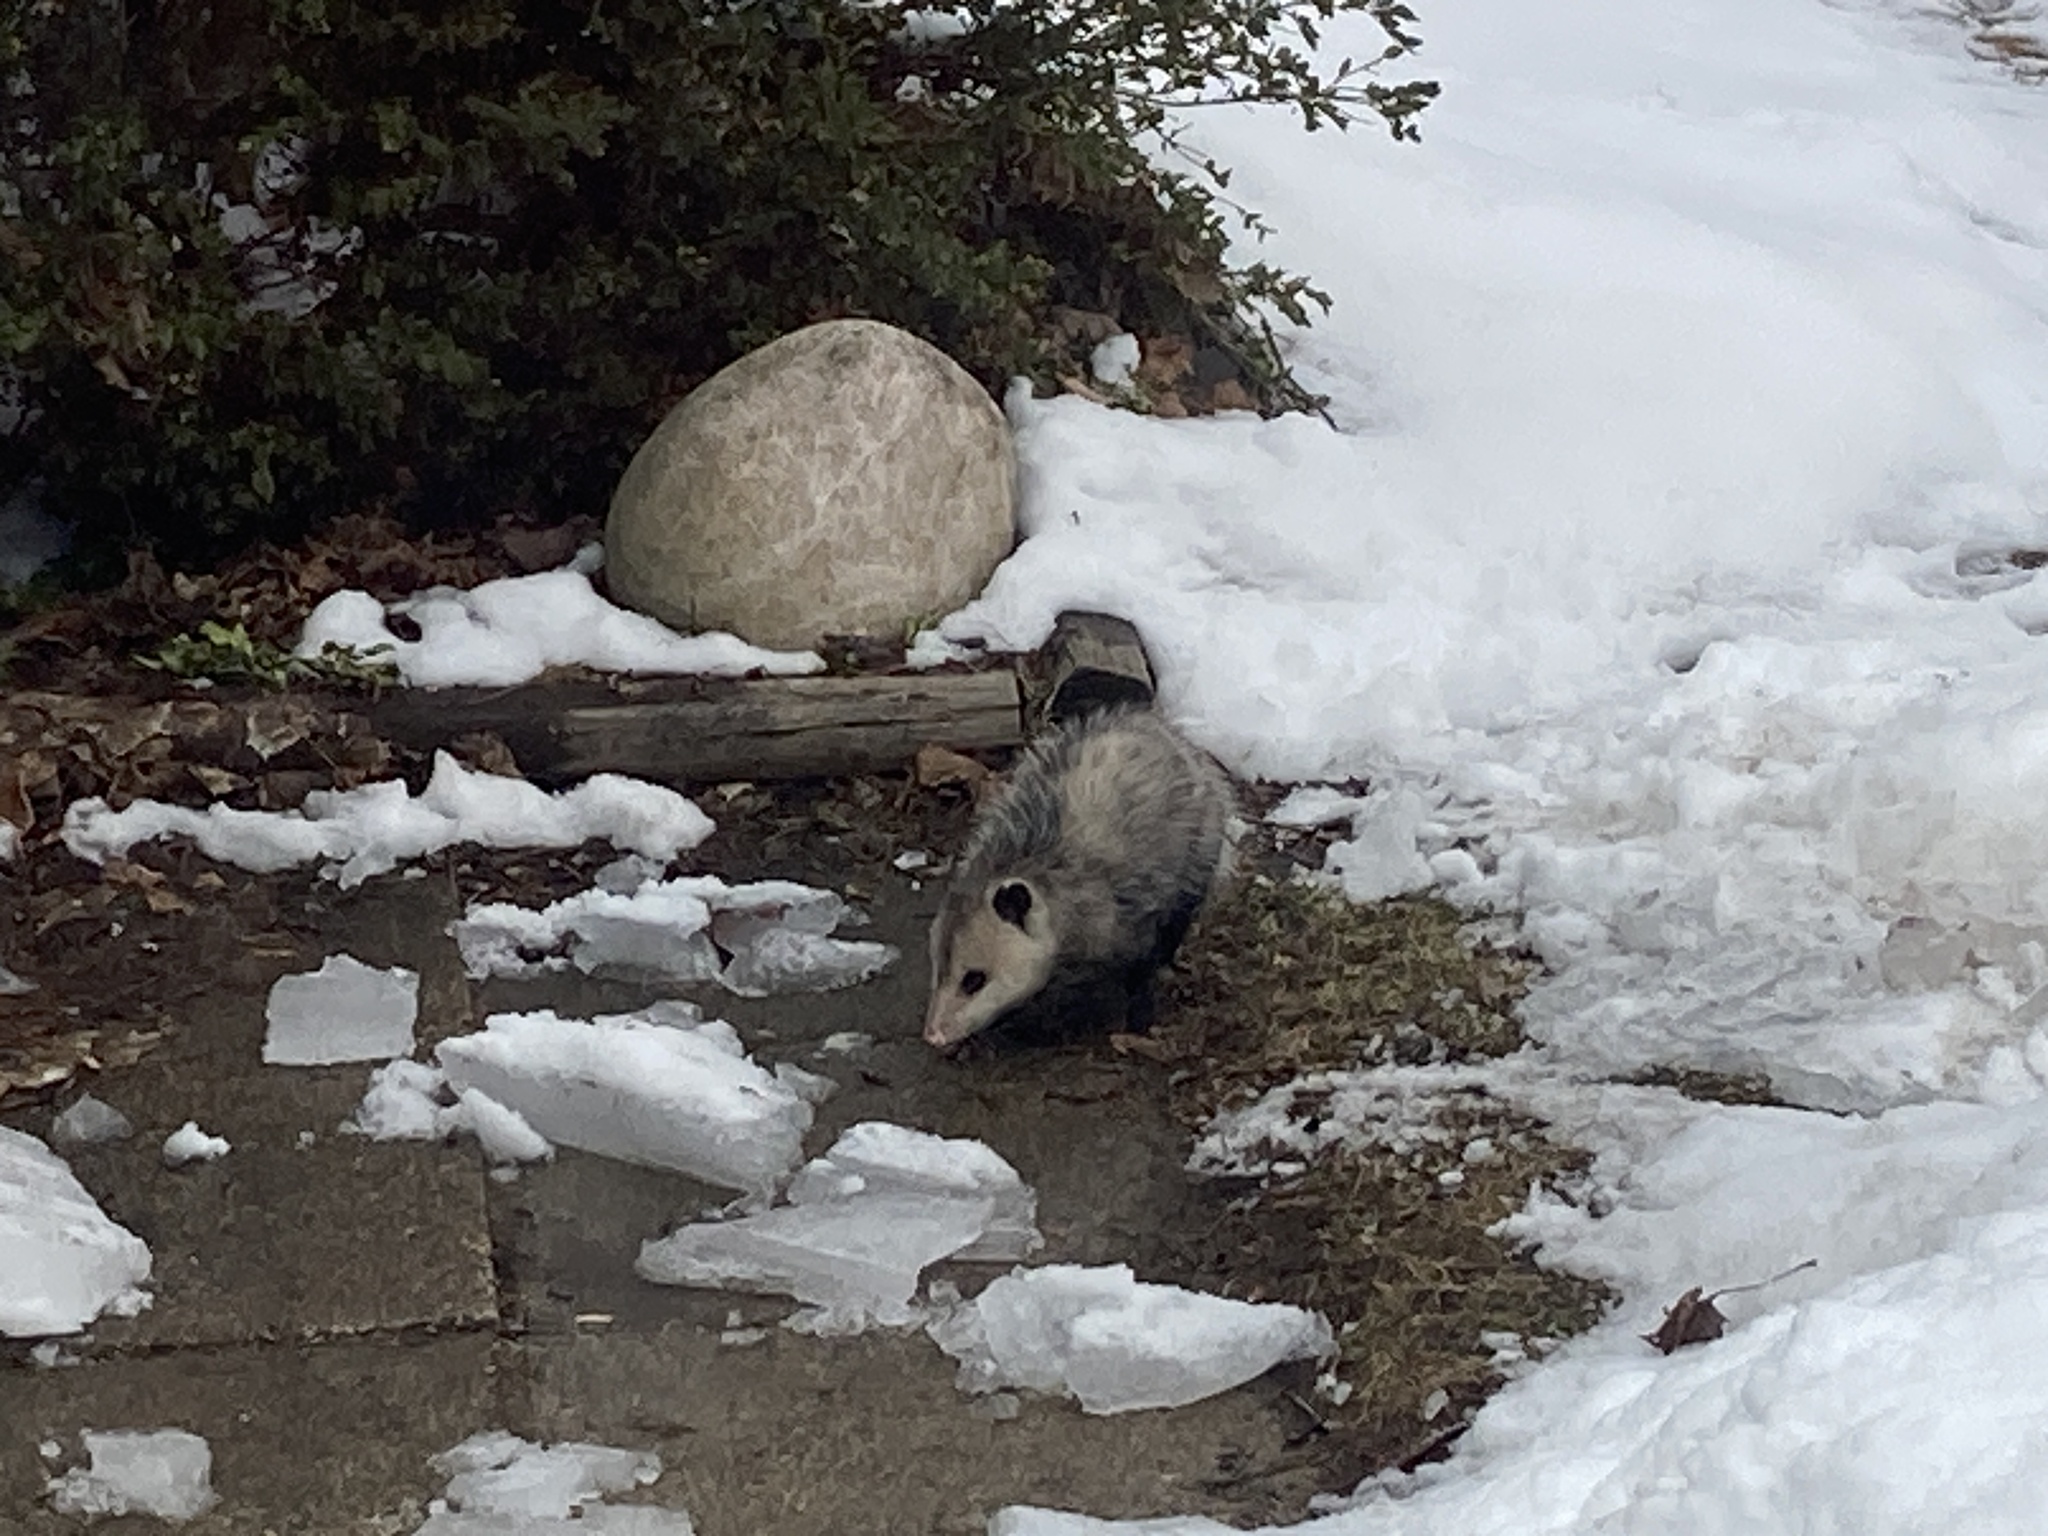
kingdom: Animalia
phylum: Chordata
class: Mammalia
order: Didelphimorphia
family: Didelphidae
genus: Didelphis
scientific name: Didelphis virginiana
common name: Virginia opossum
